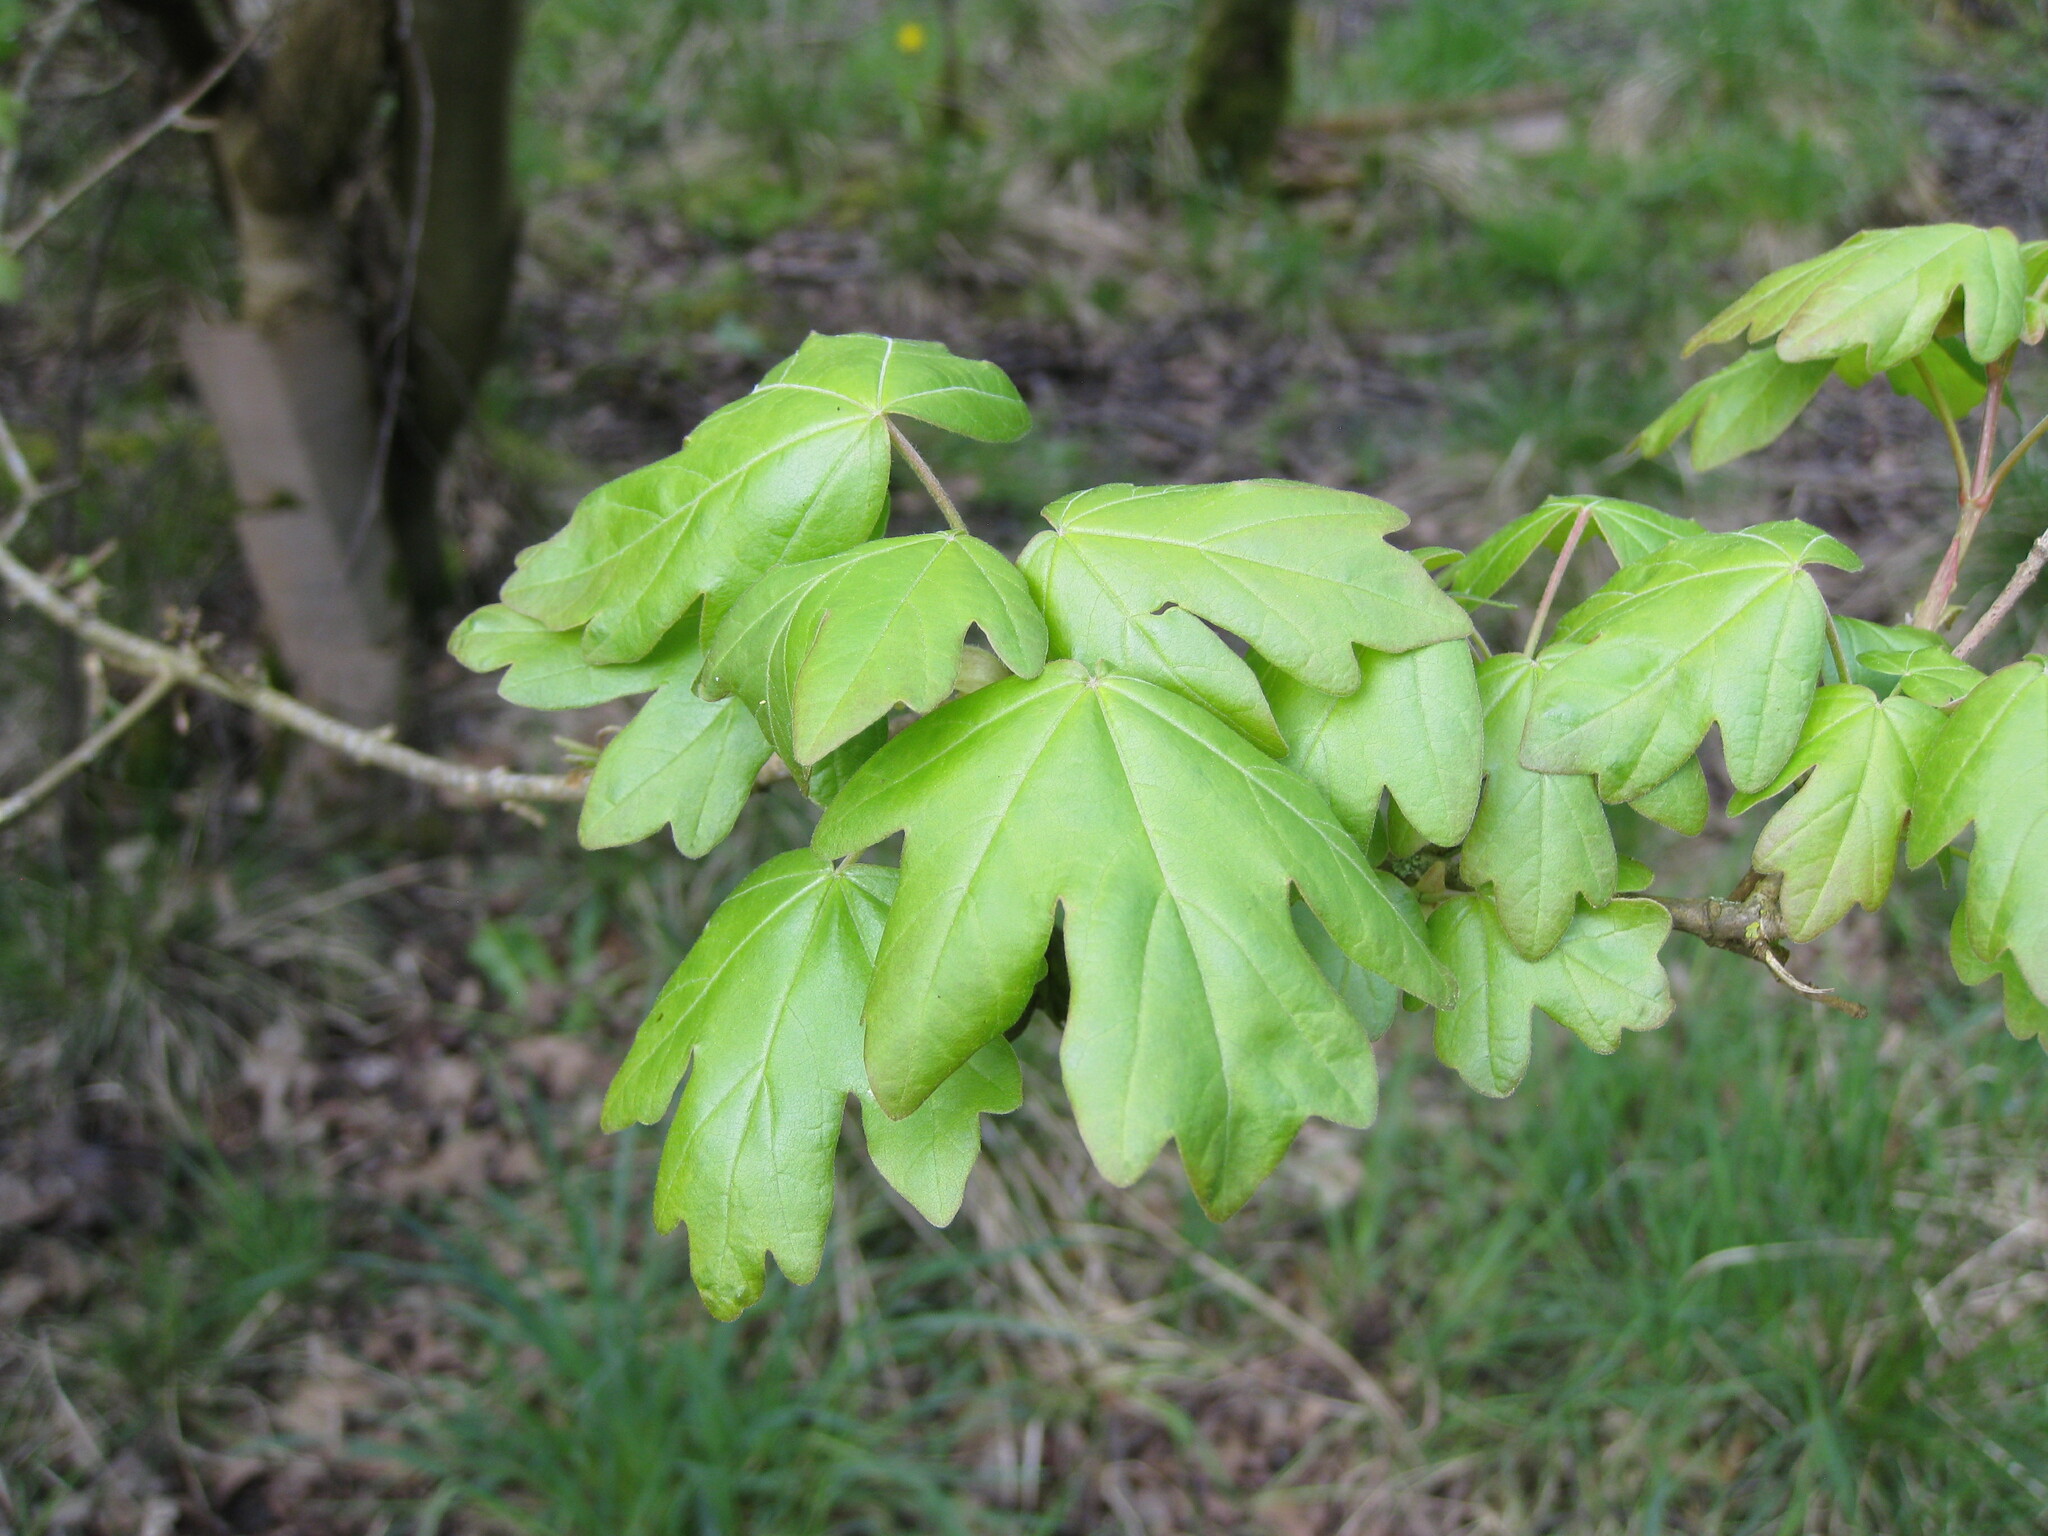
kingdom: Plantae
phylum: Tracheophyta
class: Magnoliopsida
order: Sapindales
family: Sapindaceae
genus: Acer
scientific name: Acer campestre
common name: Field maple
